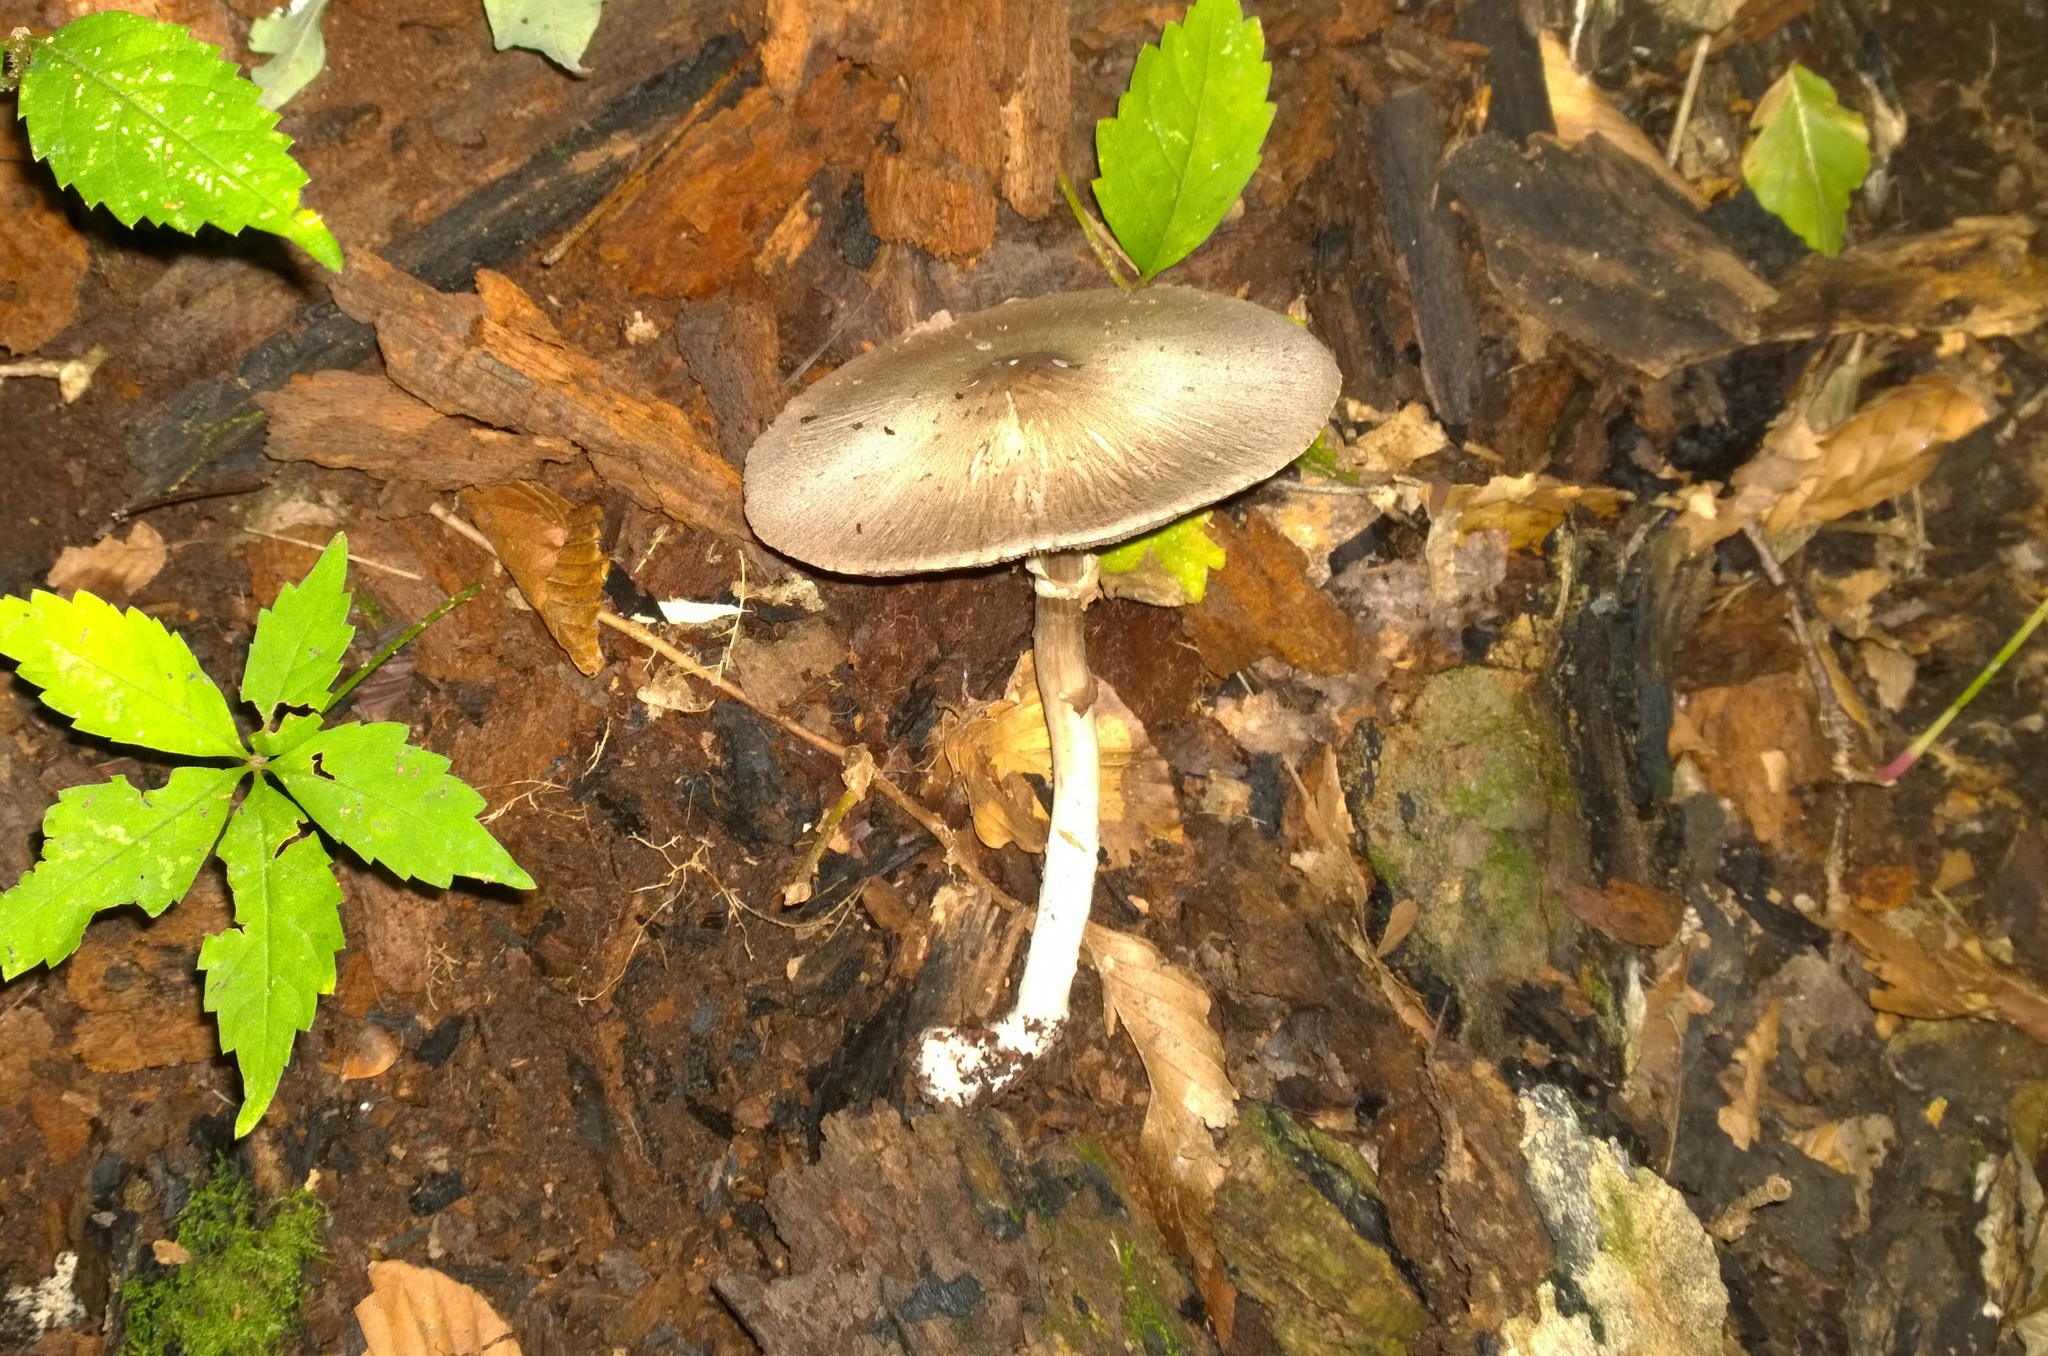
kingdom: Fungi
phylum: Basidiomycota
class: Agaricomycetes
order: Agaricales
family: Agaricaceae
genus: Agaricus
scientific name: Agaricus placomyces
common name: Inky mushroom
